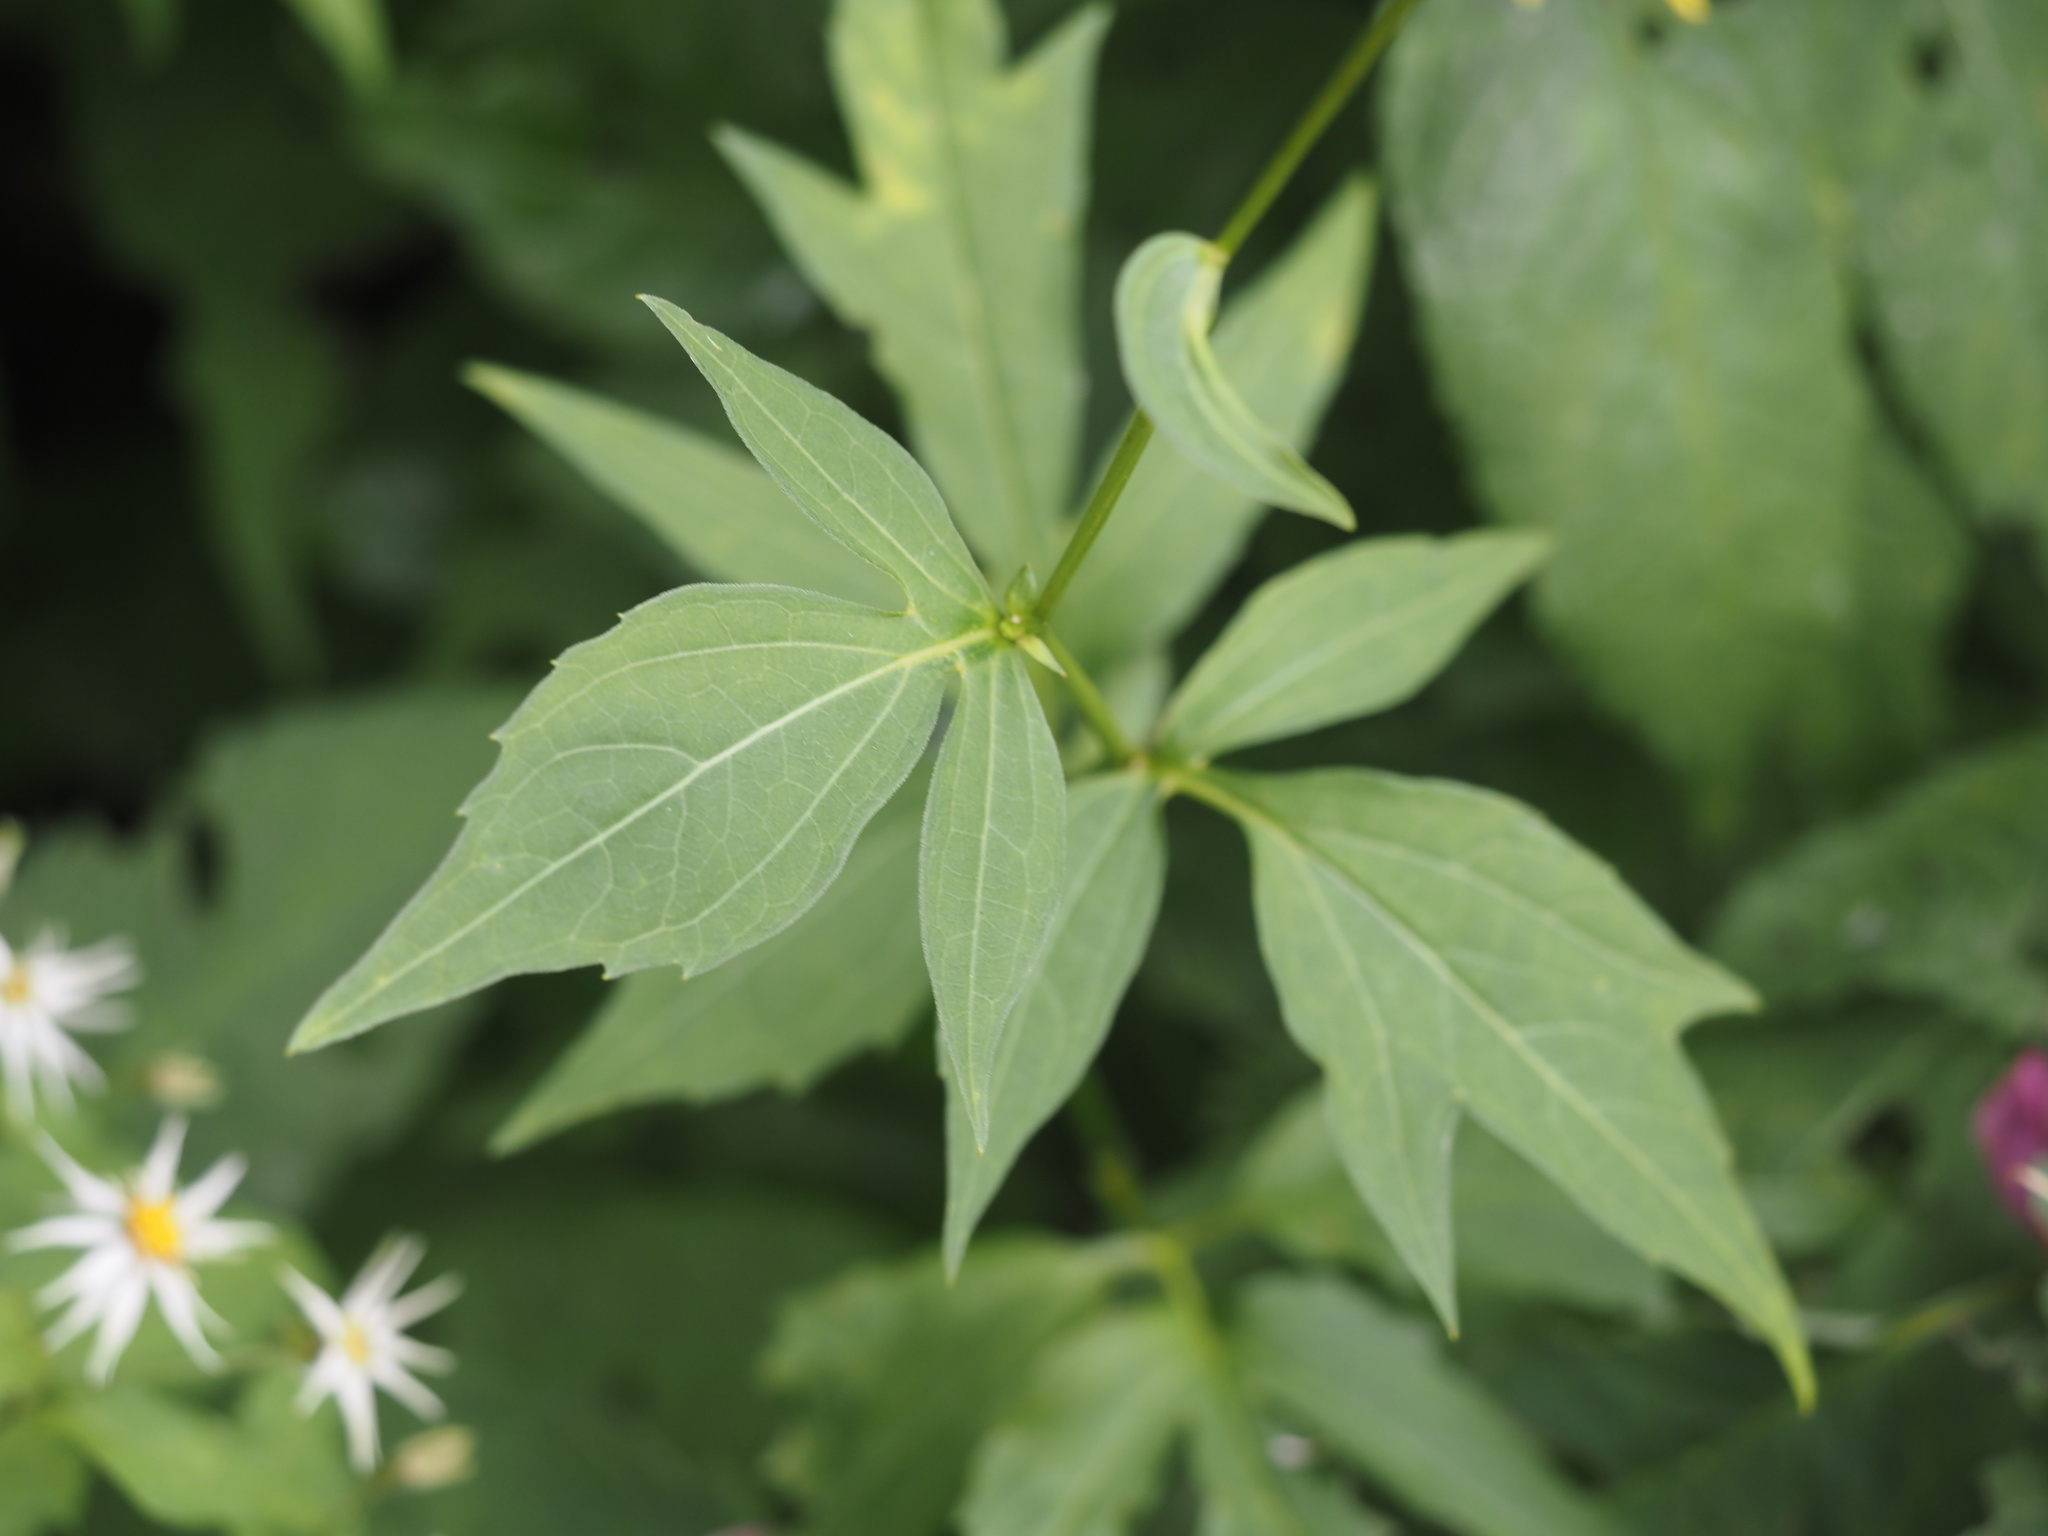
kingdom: Plantae
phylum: Tracheophyta
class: Magnoliopsida
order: Asterales
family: Asteraceae
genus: Rudbeckia
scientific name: Rudbeckia laciniata
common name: Coneflower
